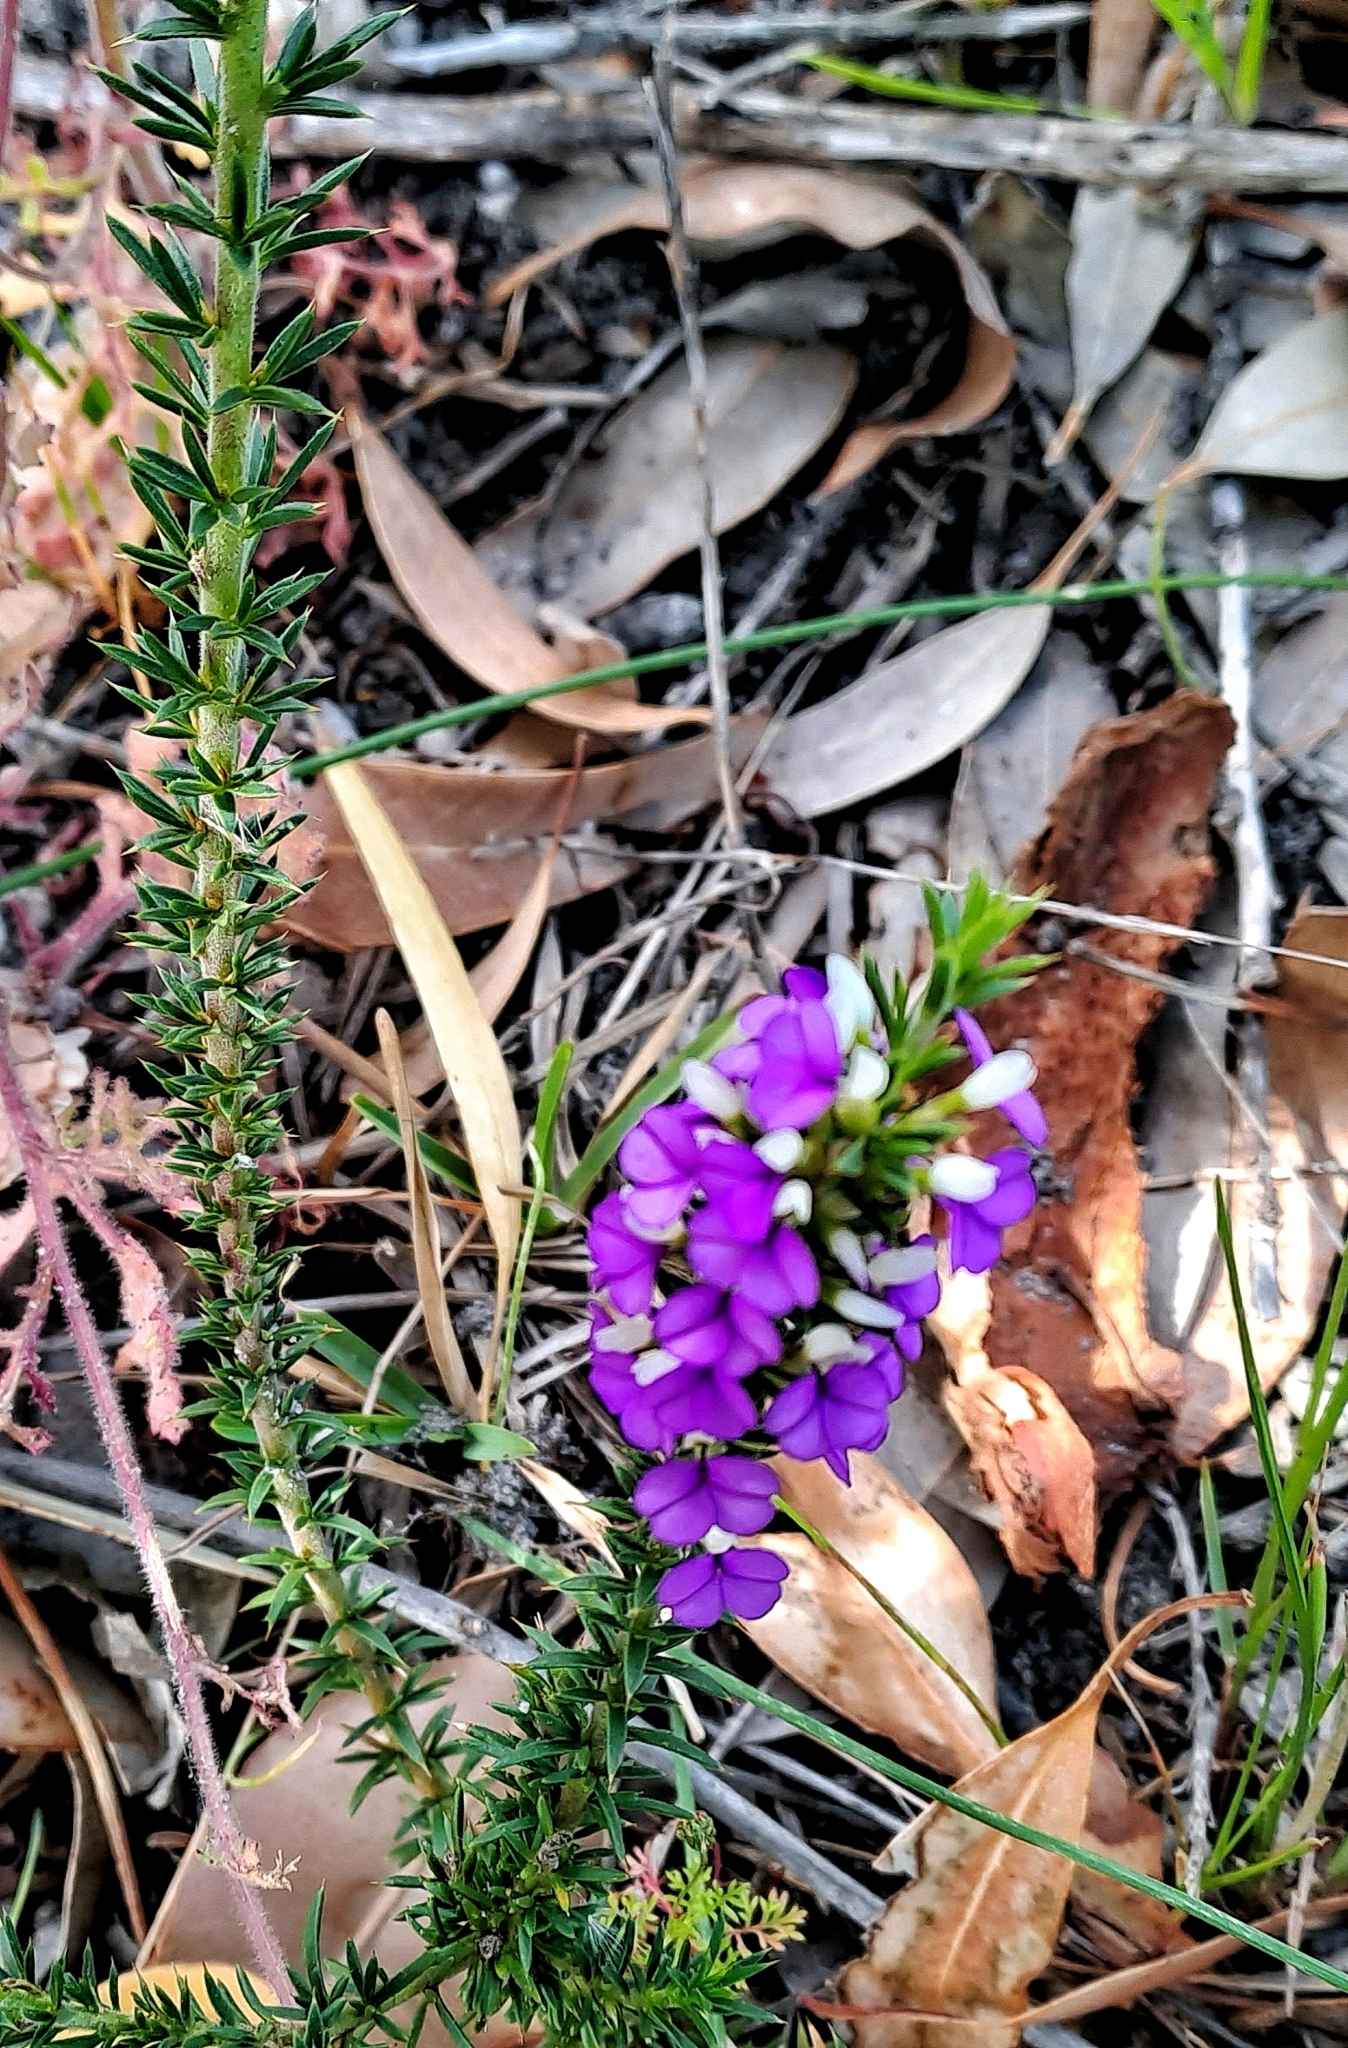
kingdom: Plantae
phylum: Tracheophyta
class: Magnoliopsida
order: Fabales
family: Polygalaceae
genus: Muraltia
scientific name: Muraltia heisteria
